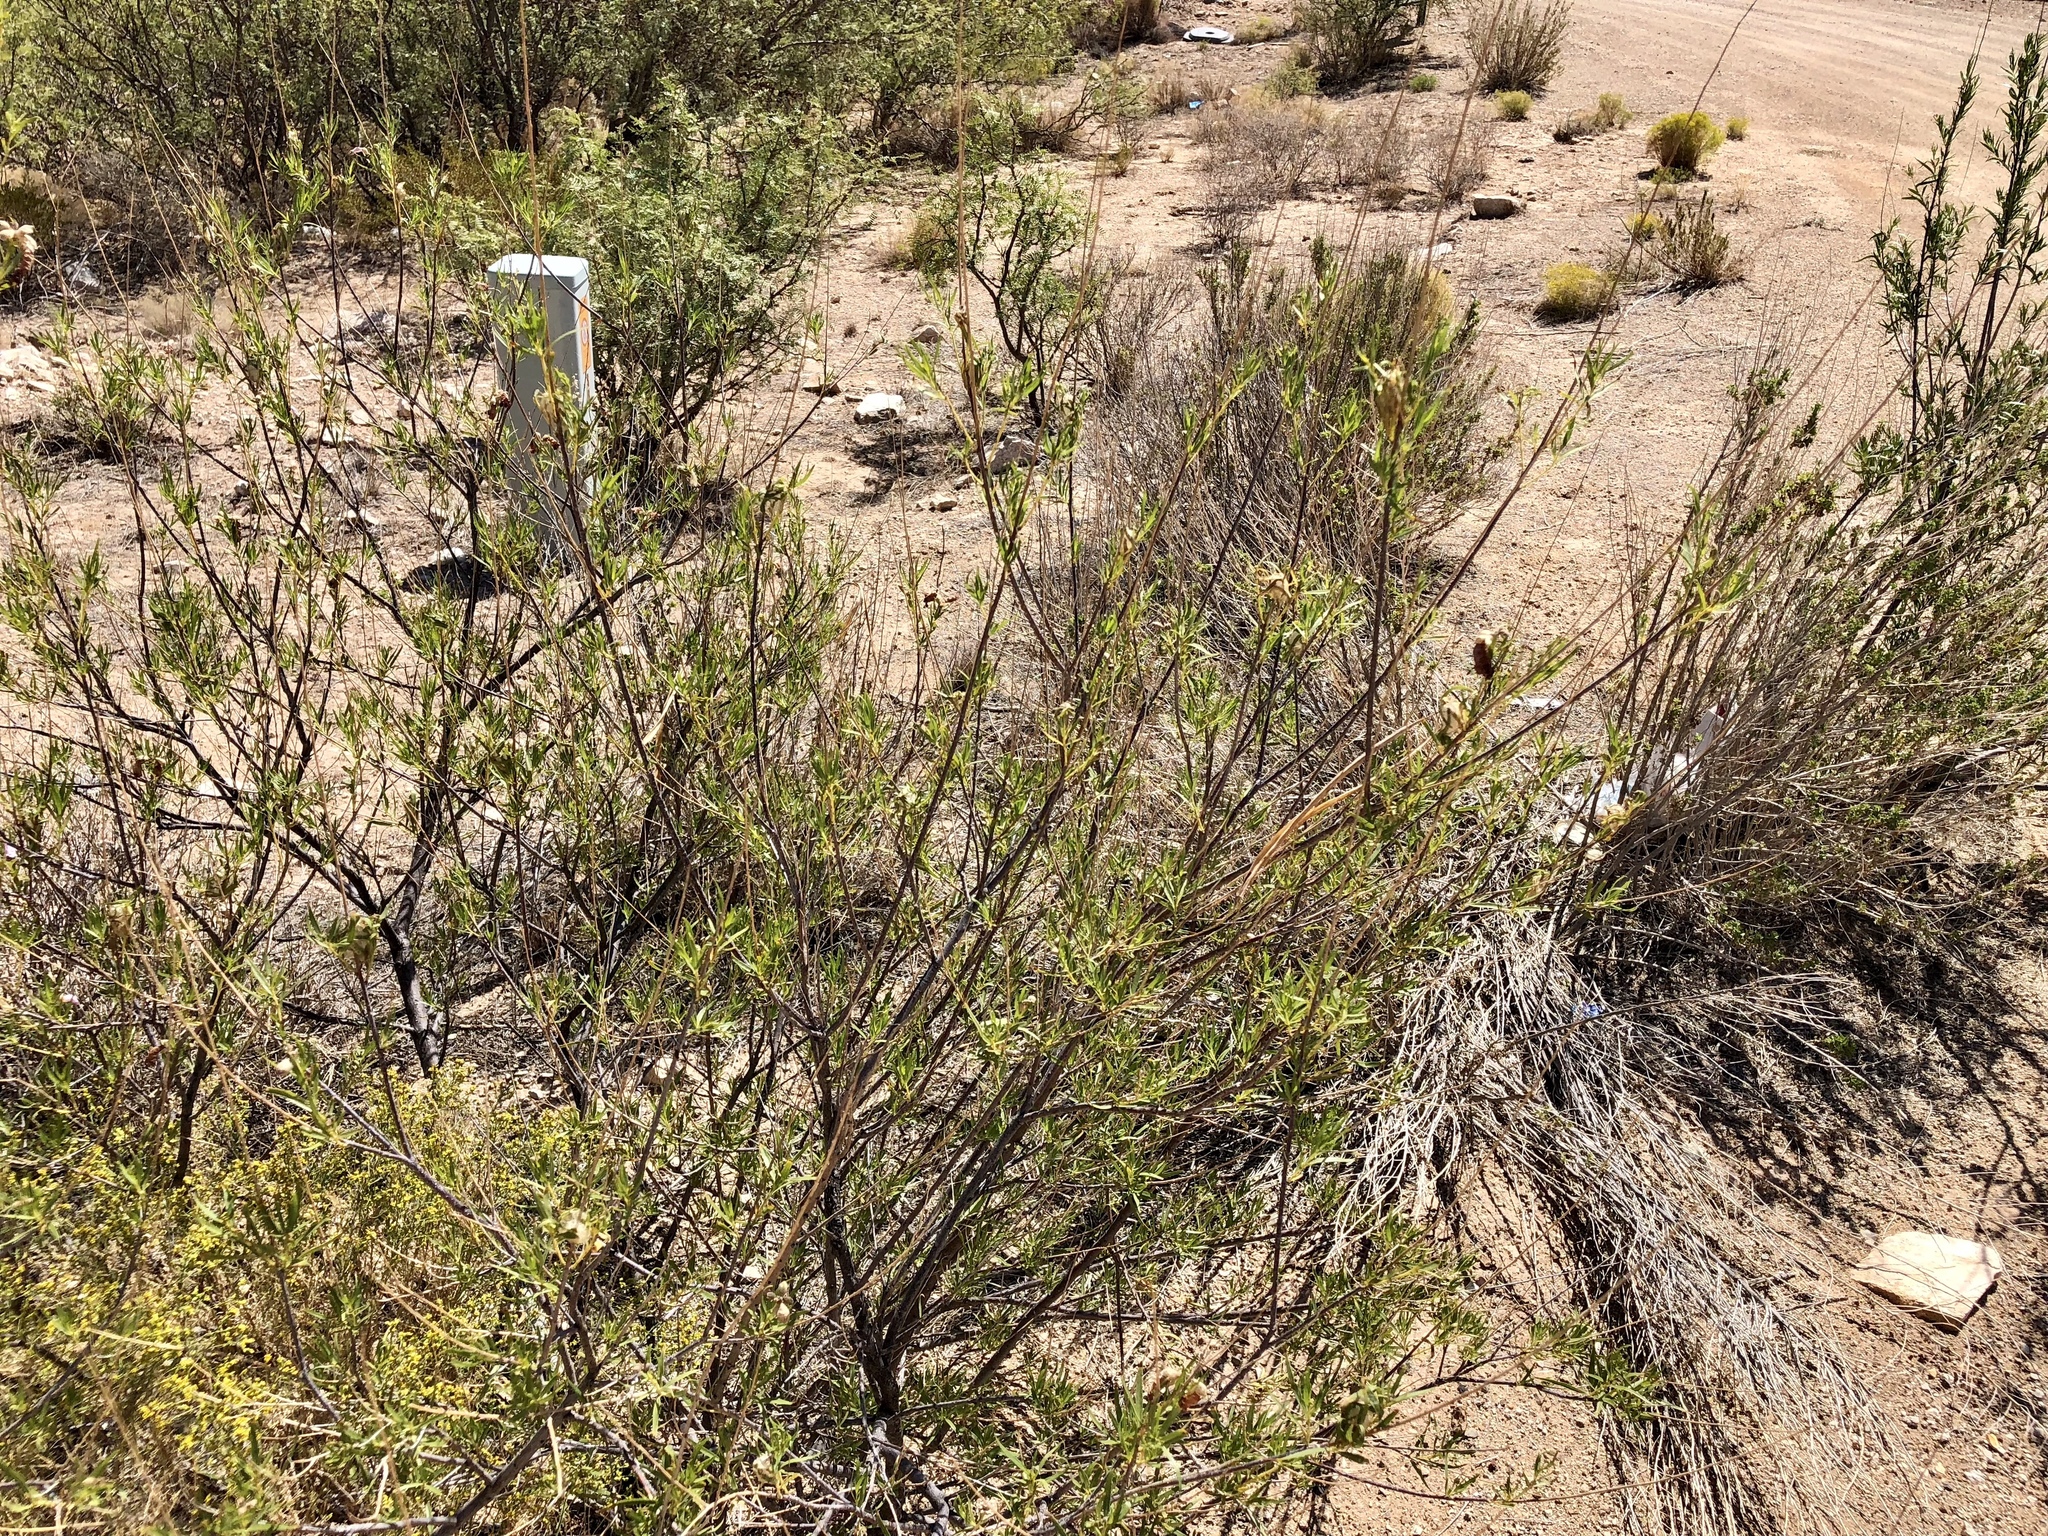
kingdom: Plantae
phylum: Tracheophyta
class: Magnoliopsida
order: Lamiales
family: Bignoniaceae
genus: Chilopsis
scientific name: Chilopsis linearis
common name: Desert-willow
